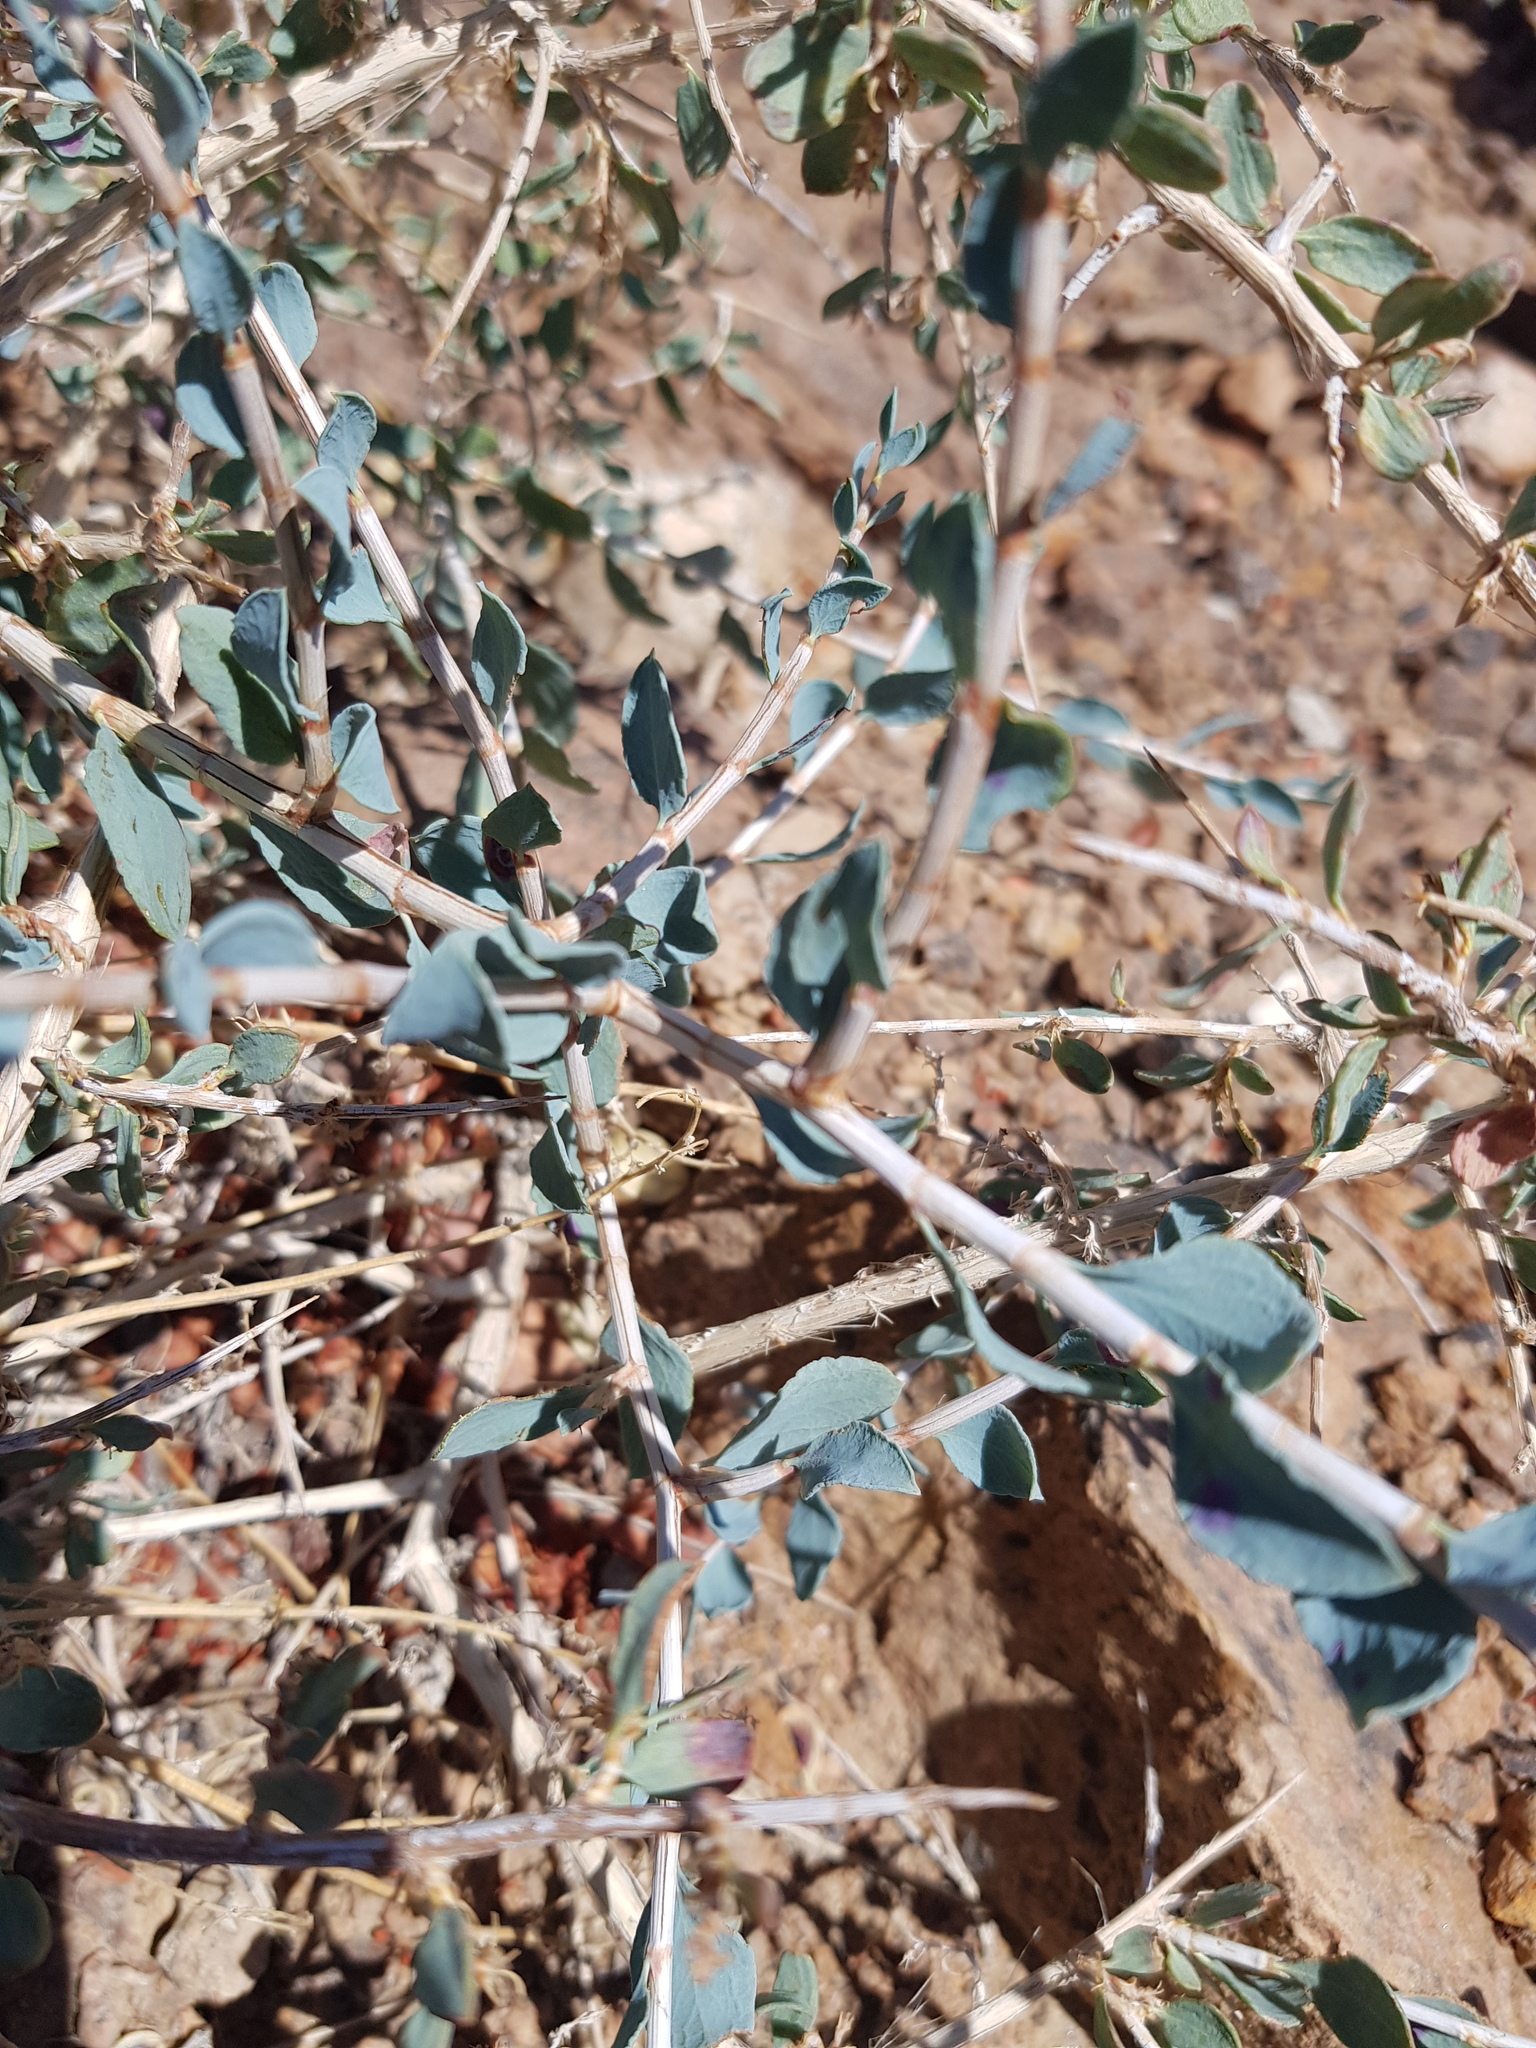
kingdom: Plantae
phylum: Tracheophyta
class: Magnoliopsida
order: Caryophyllales
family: Polygonaceae
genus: Atraphaxis
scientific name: Atraphaxis frutescens
